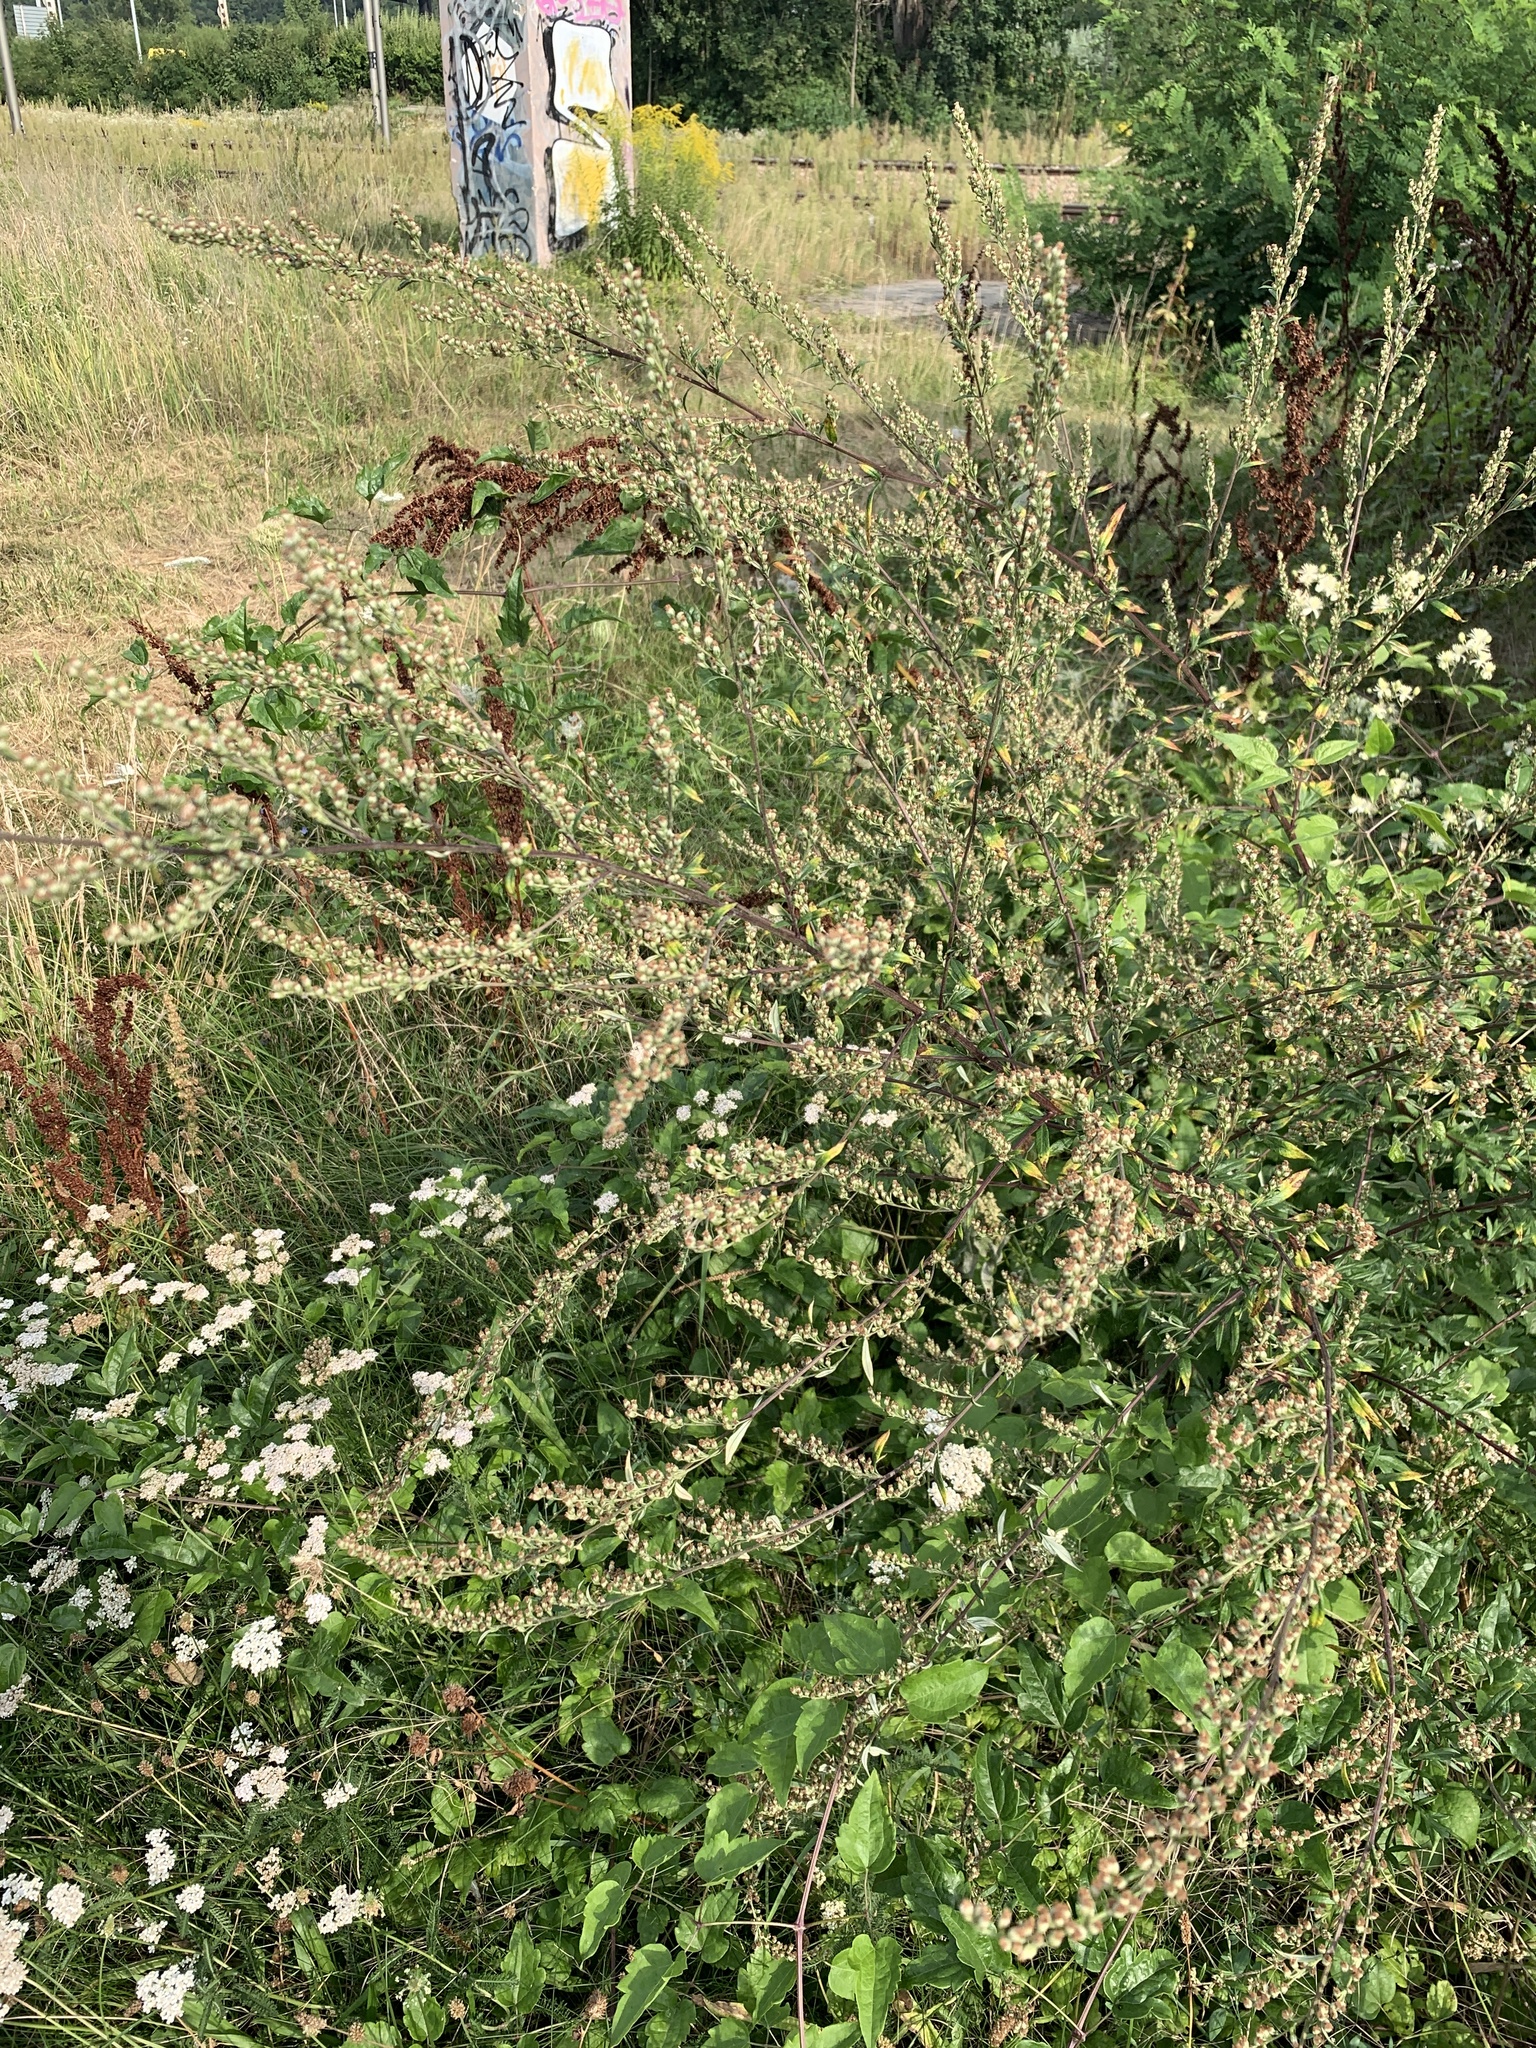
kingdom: Plantae
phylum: Tracheophyta
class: Magnoliopsida
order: Asterales
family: Asteraceae
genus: Artemisia
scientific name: Artemisia vulgaris
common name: Mugwort
